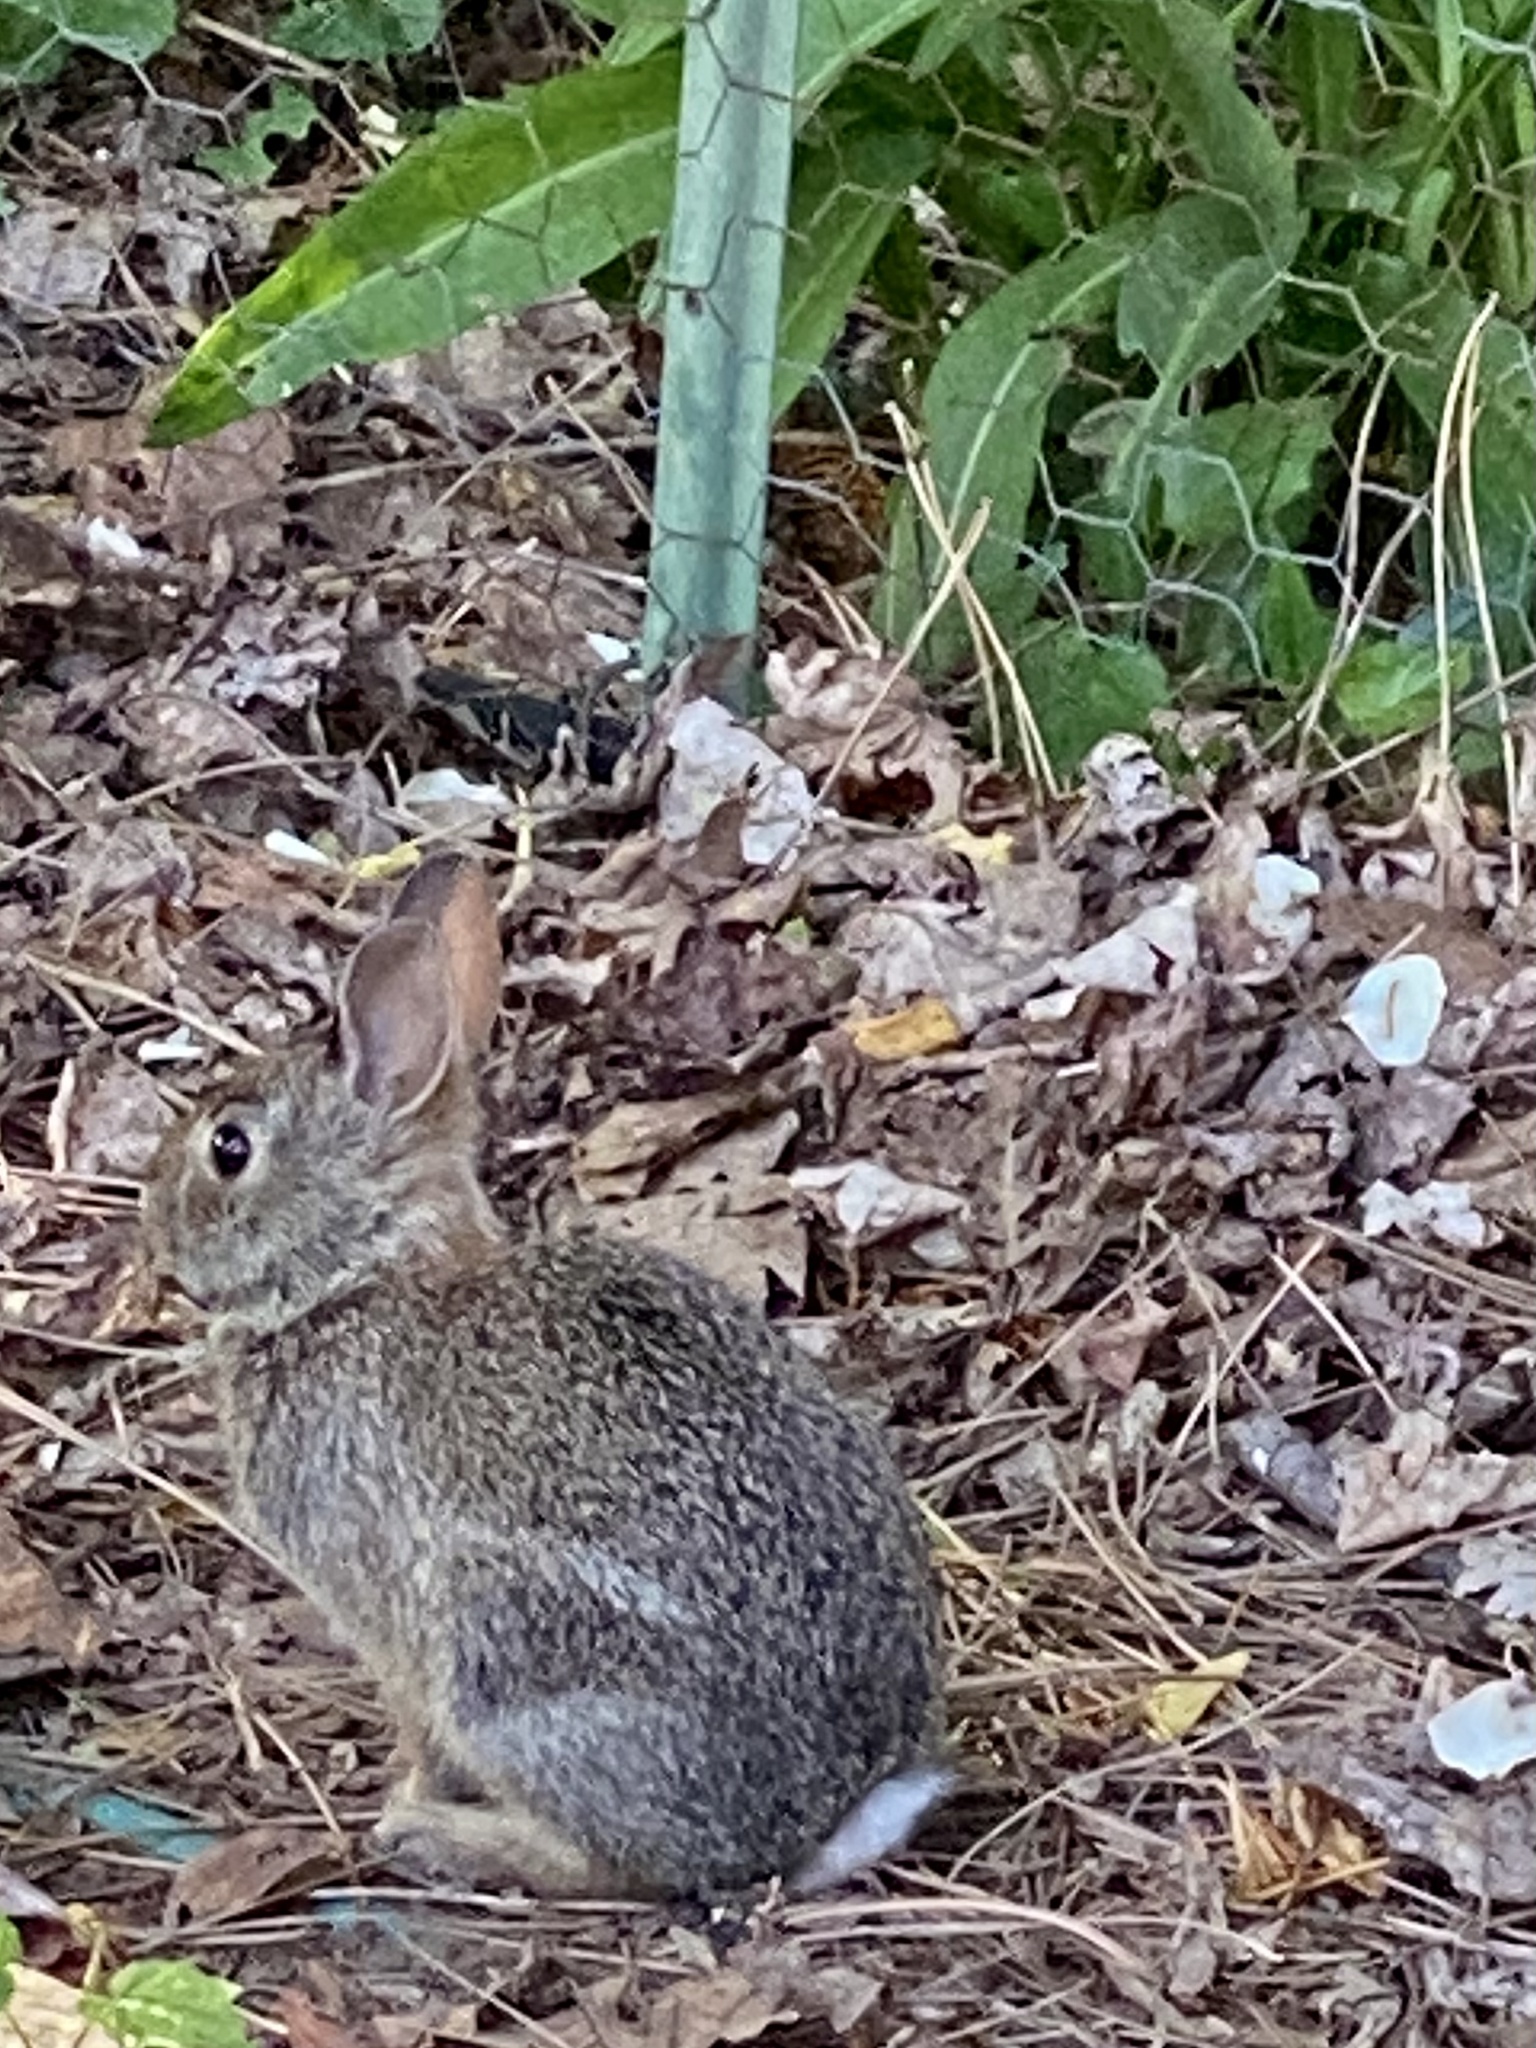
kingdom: Animalia
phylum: Chordata
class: Mammalia
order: Lagomorpha
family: Leporidae
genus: Sylvilagus
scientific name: Sylvilagus floridanus
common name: Eastern cottontail
